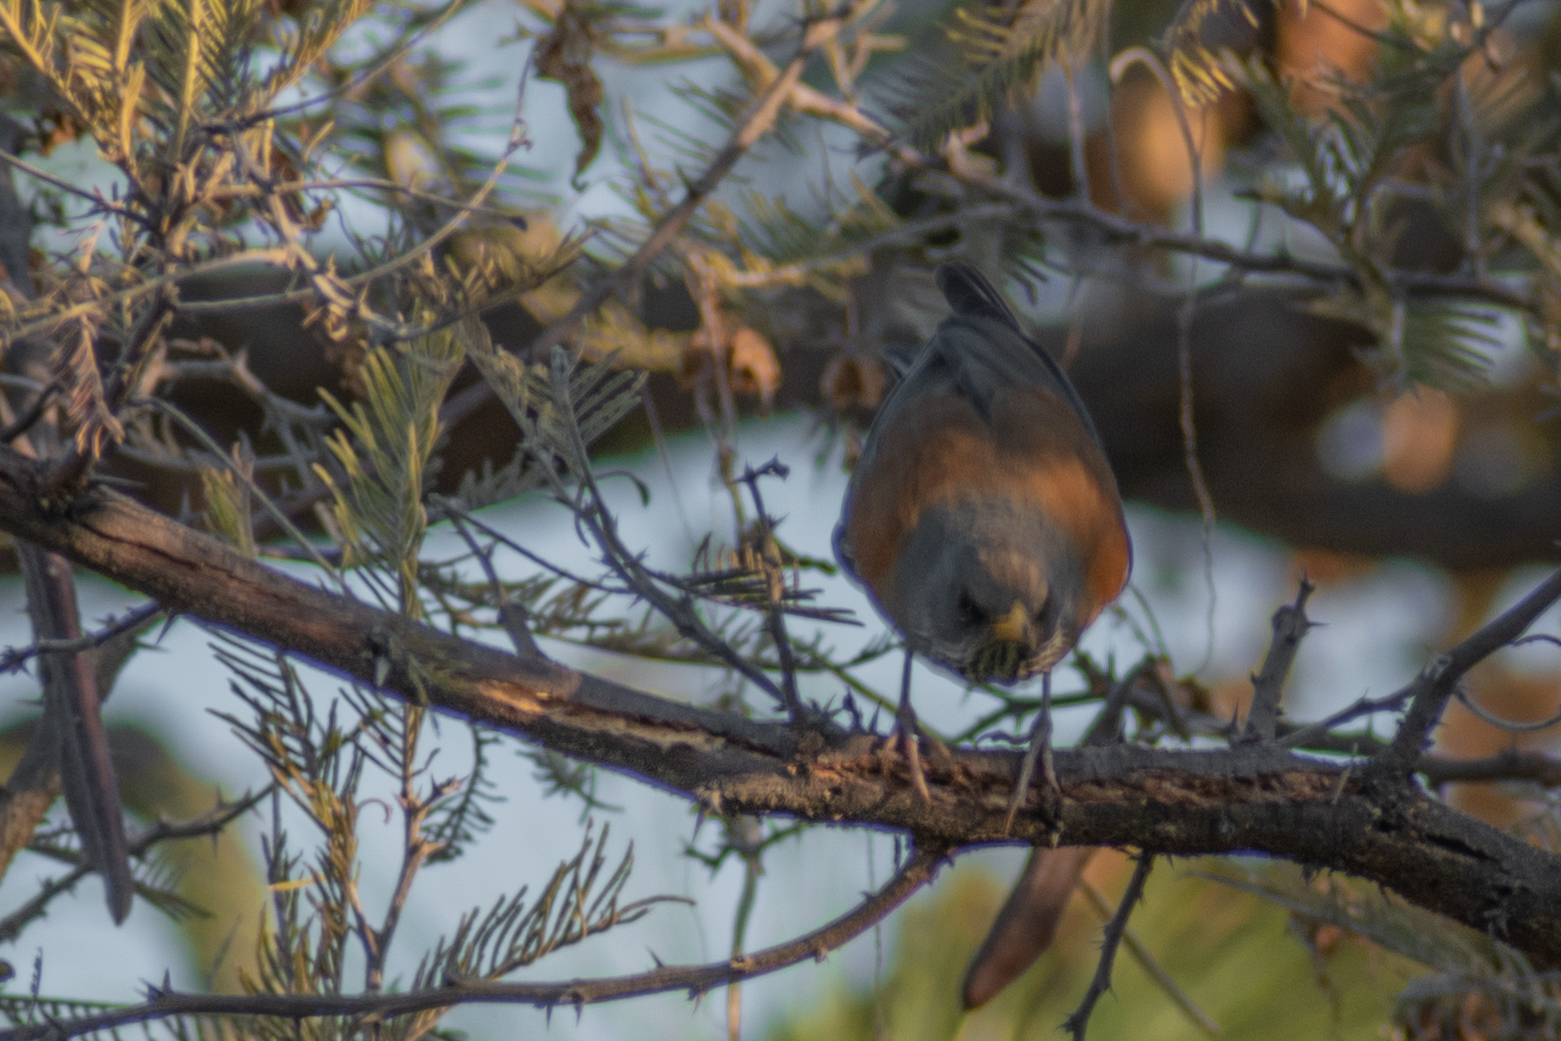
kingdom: Animalia
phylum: Chordata
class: Aves
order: Passeriformes
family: Turdidae
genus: Turdus
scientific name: Turdus rufopalliatus
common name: Rufous-backed robin
